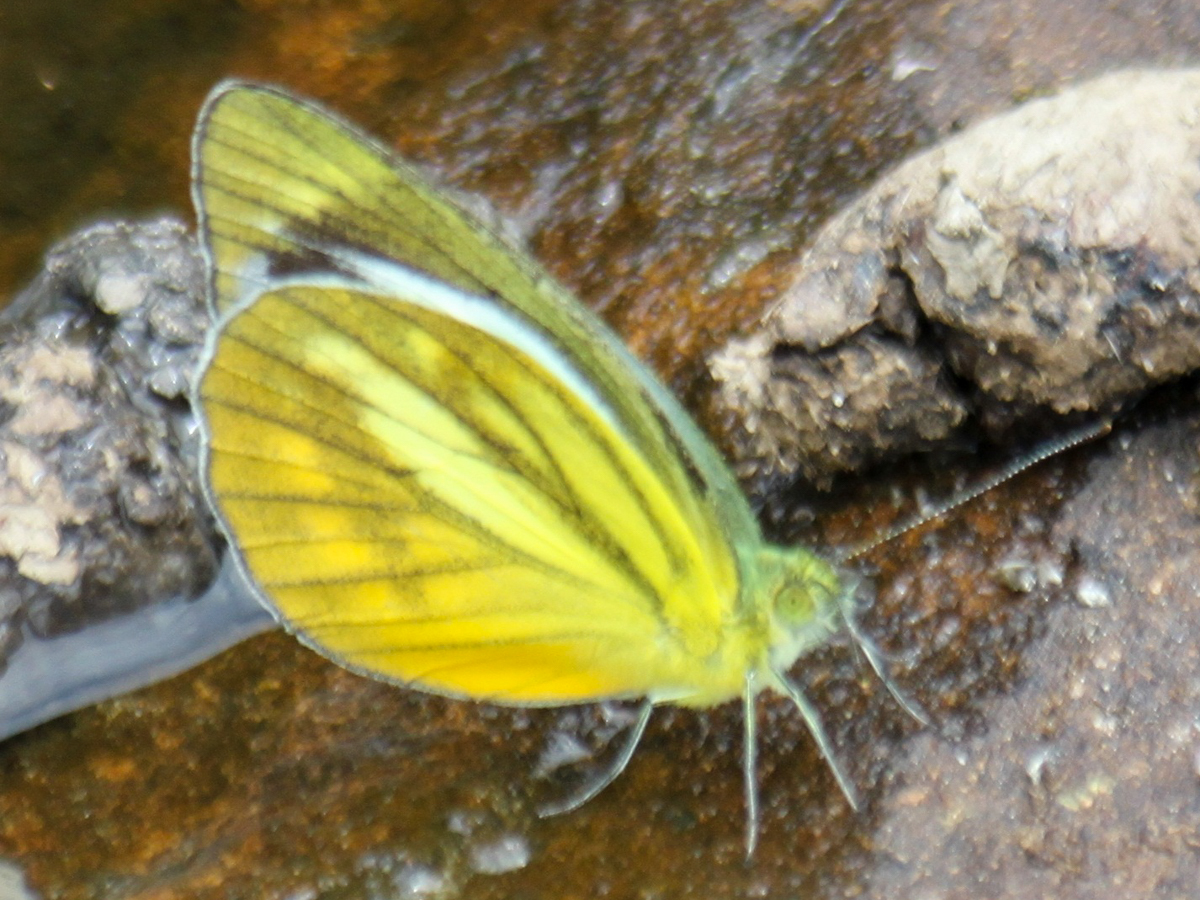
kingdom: Animalia
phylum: Arthropoda
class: Insecta
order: Lepidoptera
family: Pieridae
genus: Cepora
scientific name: Cepora nadina
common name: Lesser gull
